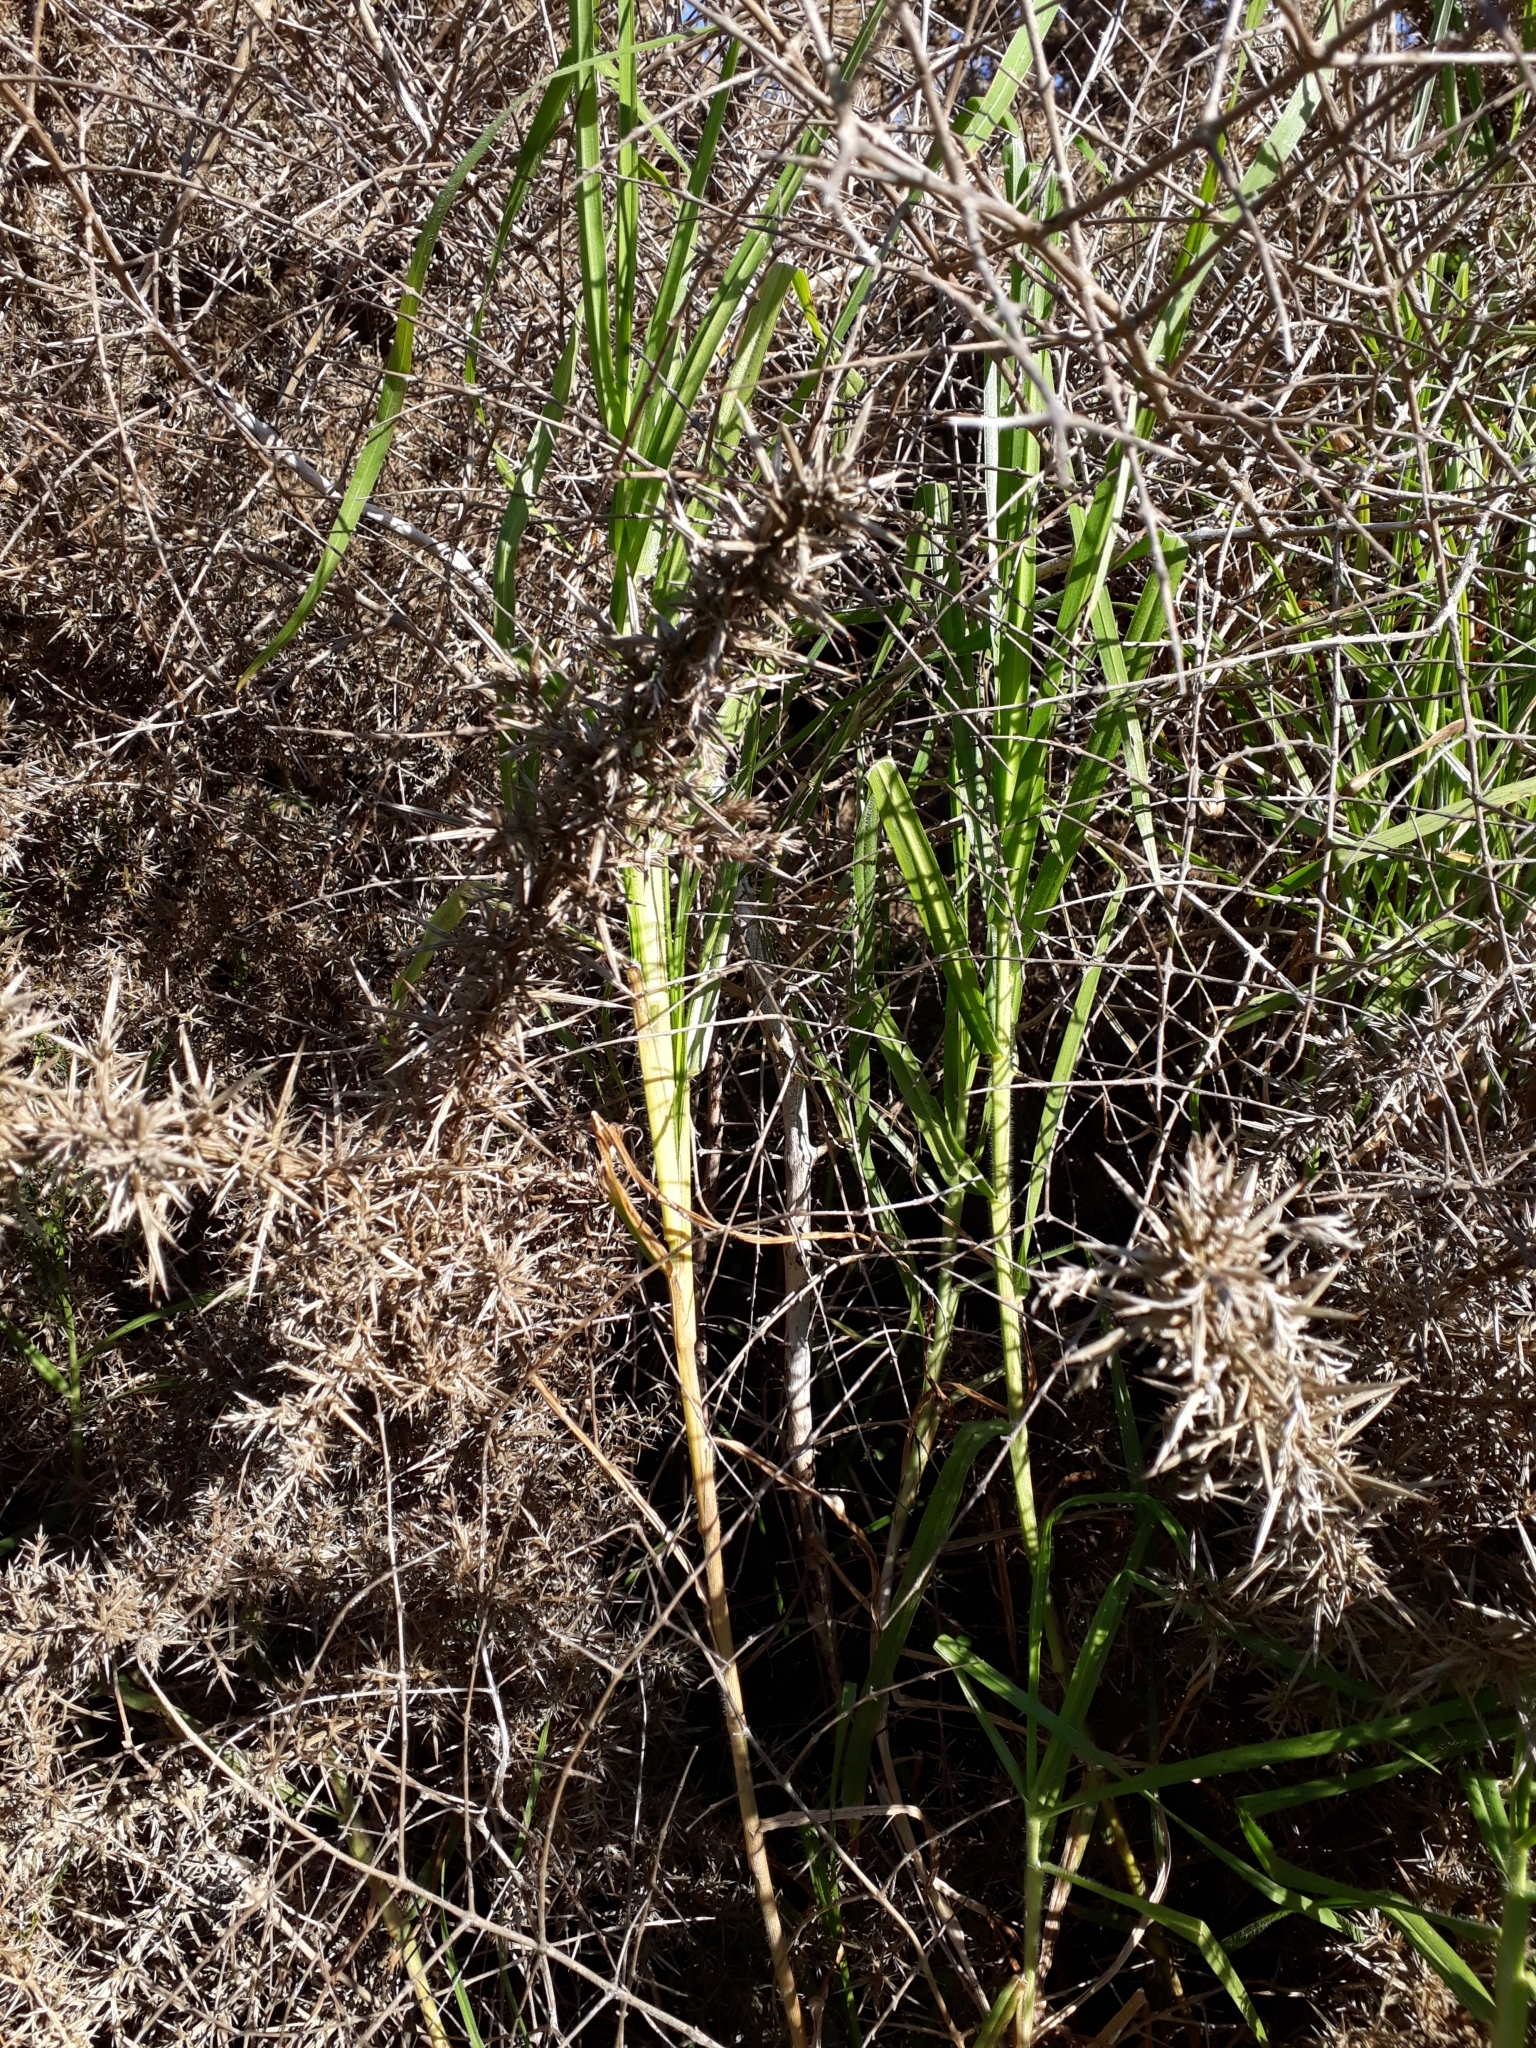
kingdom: Plantae
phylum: Tracheophyta
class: Liliopsida
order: Poales
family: Poaceae
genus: Cenchrus
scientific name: Cenchrus clandestinus
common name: Kikuyugrass
